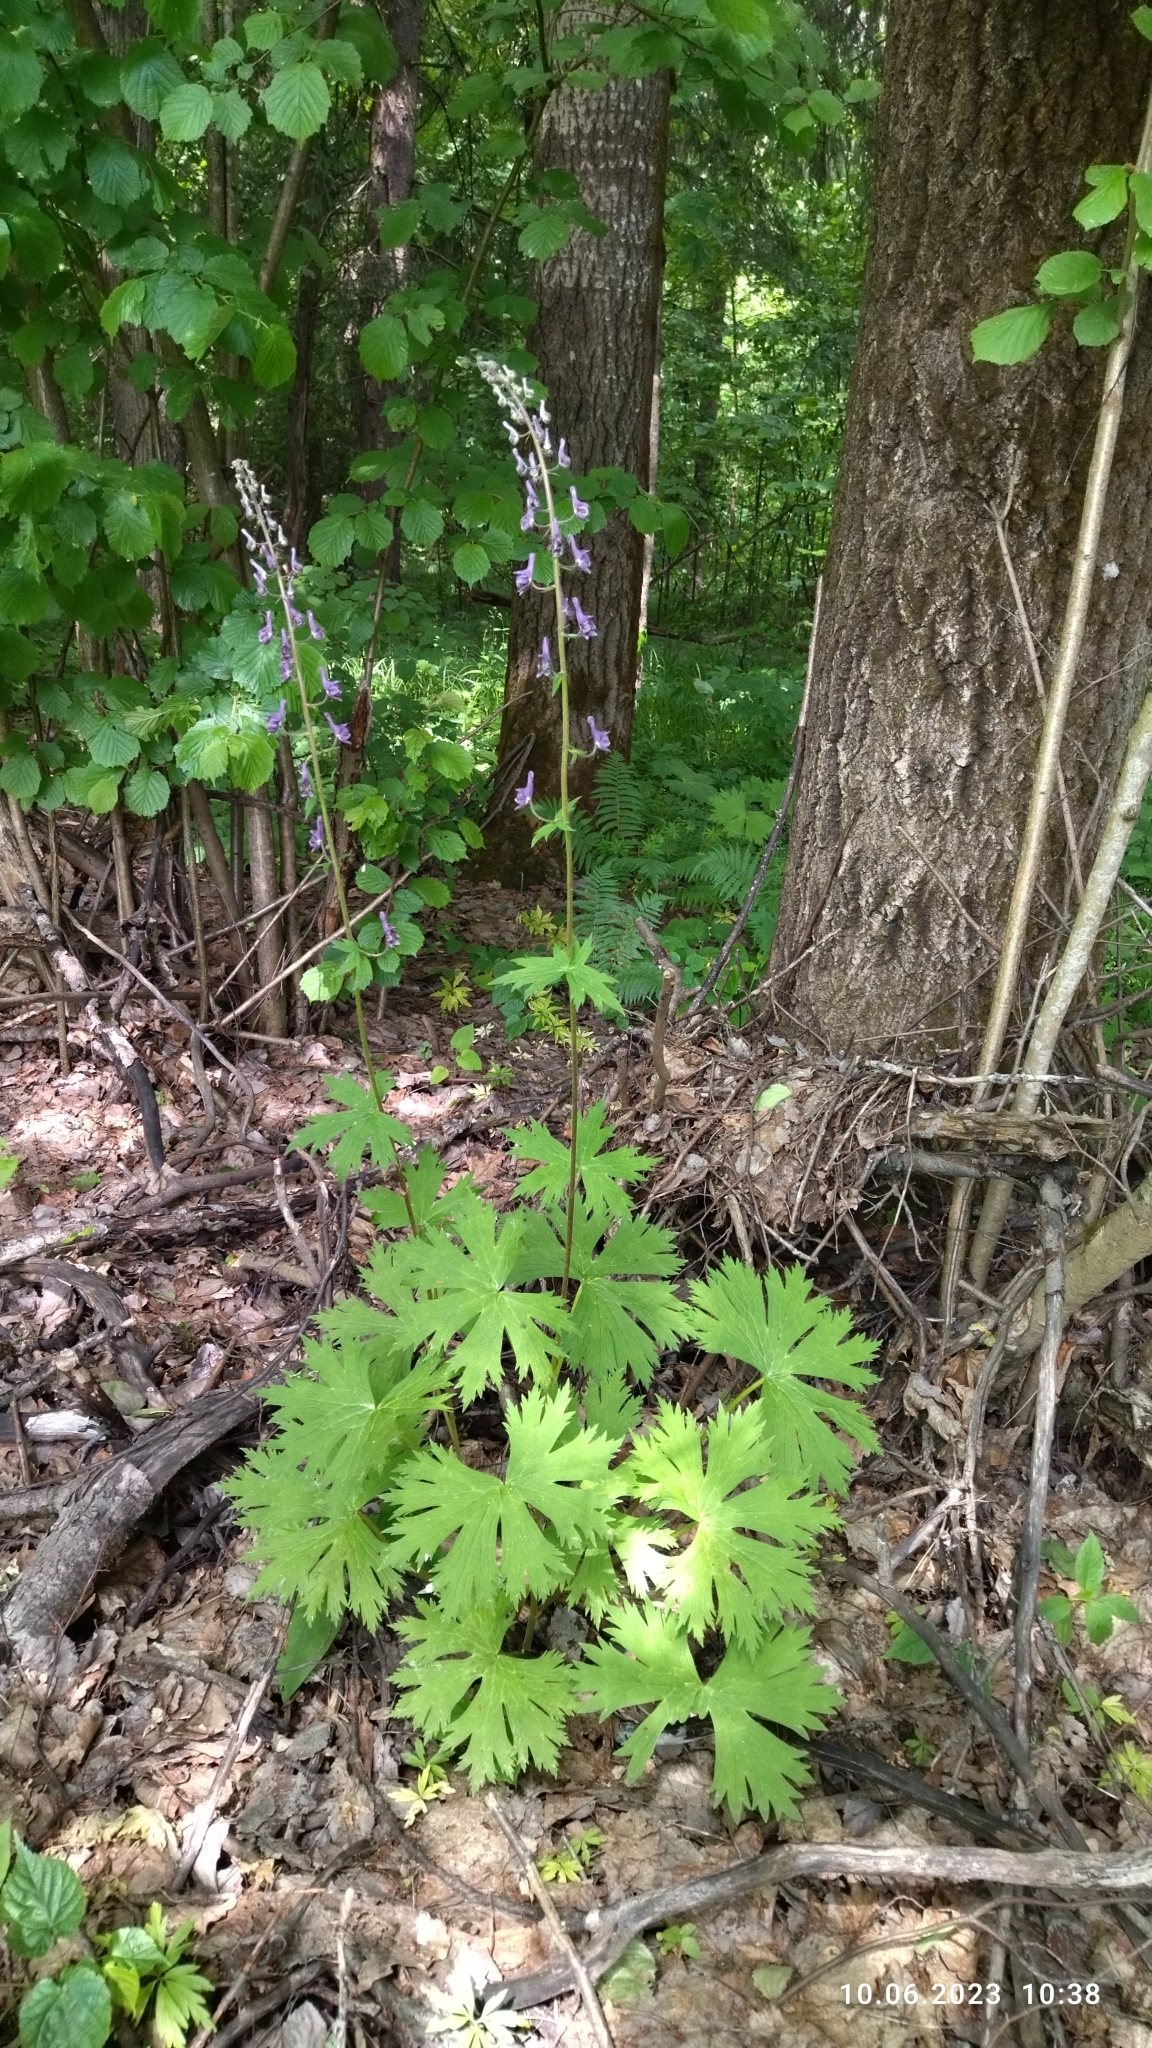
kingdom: Plantae
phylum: Tracheophyta
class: Magnoliopsida
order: Ranunculales
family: Ranunculaceae
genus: Aconitum
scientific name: Aconitum septentrionale
